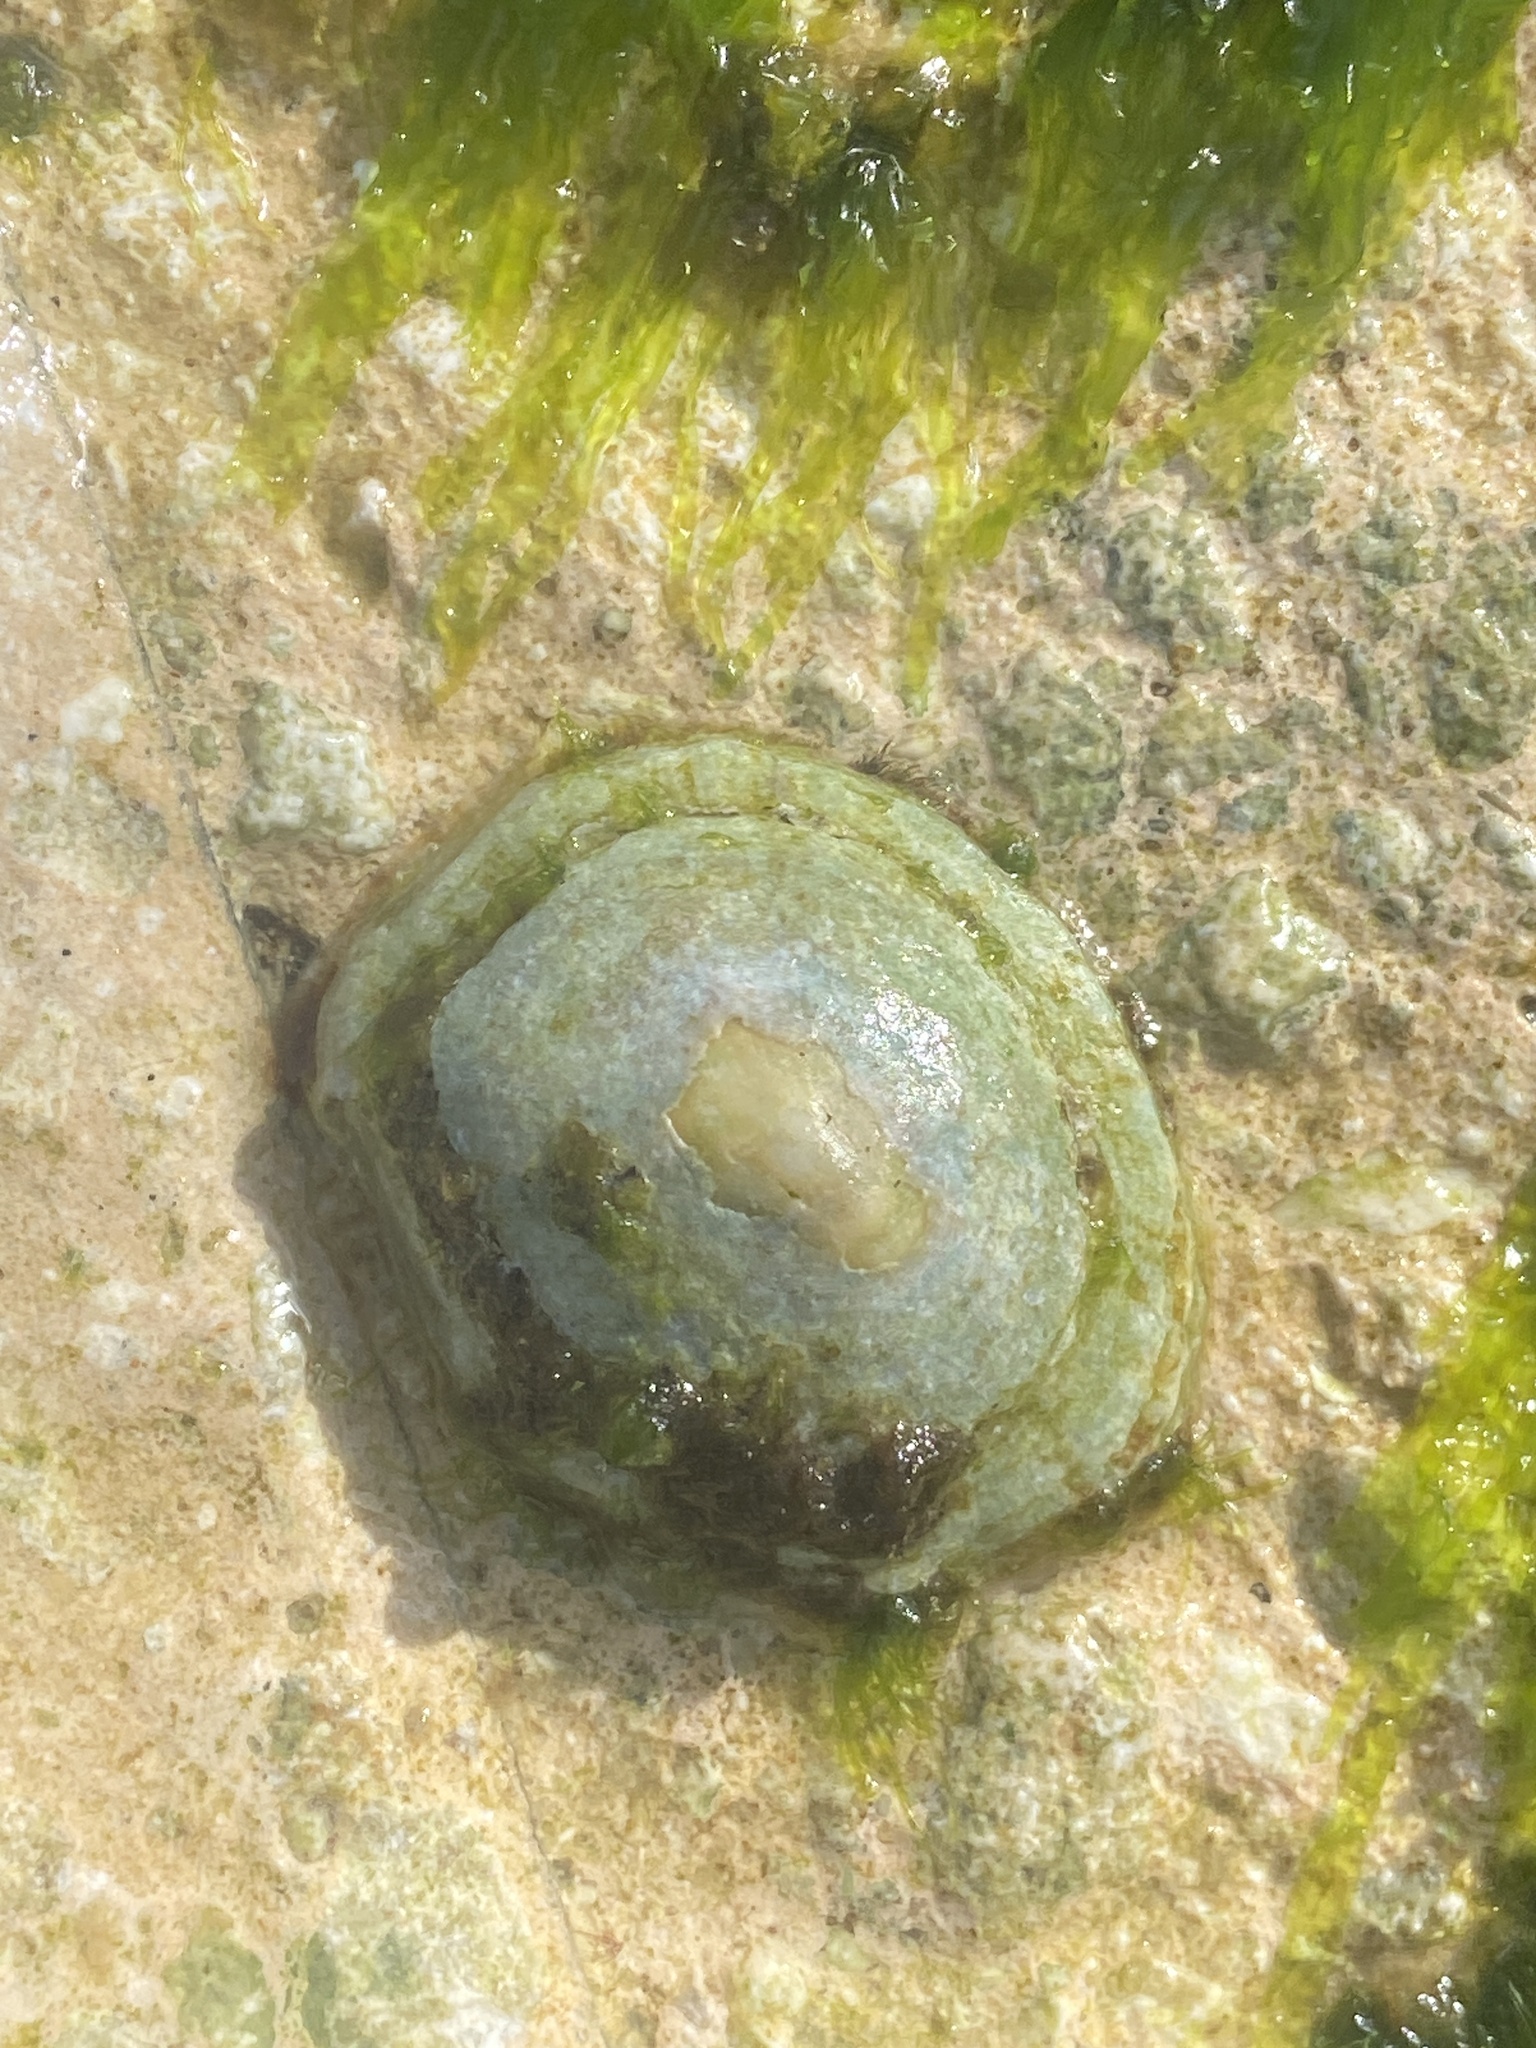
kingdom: Animalia
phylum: Mollusca
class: Gastropoda
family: Patellidae
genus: Patella
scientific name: Patella caerulea
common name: Mediterranean limpet
